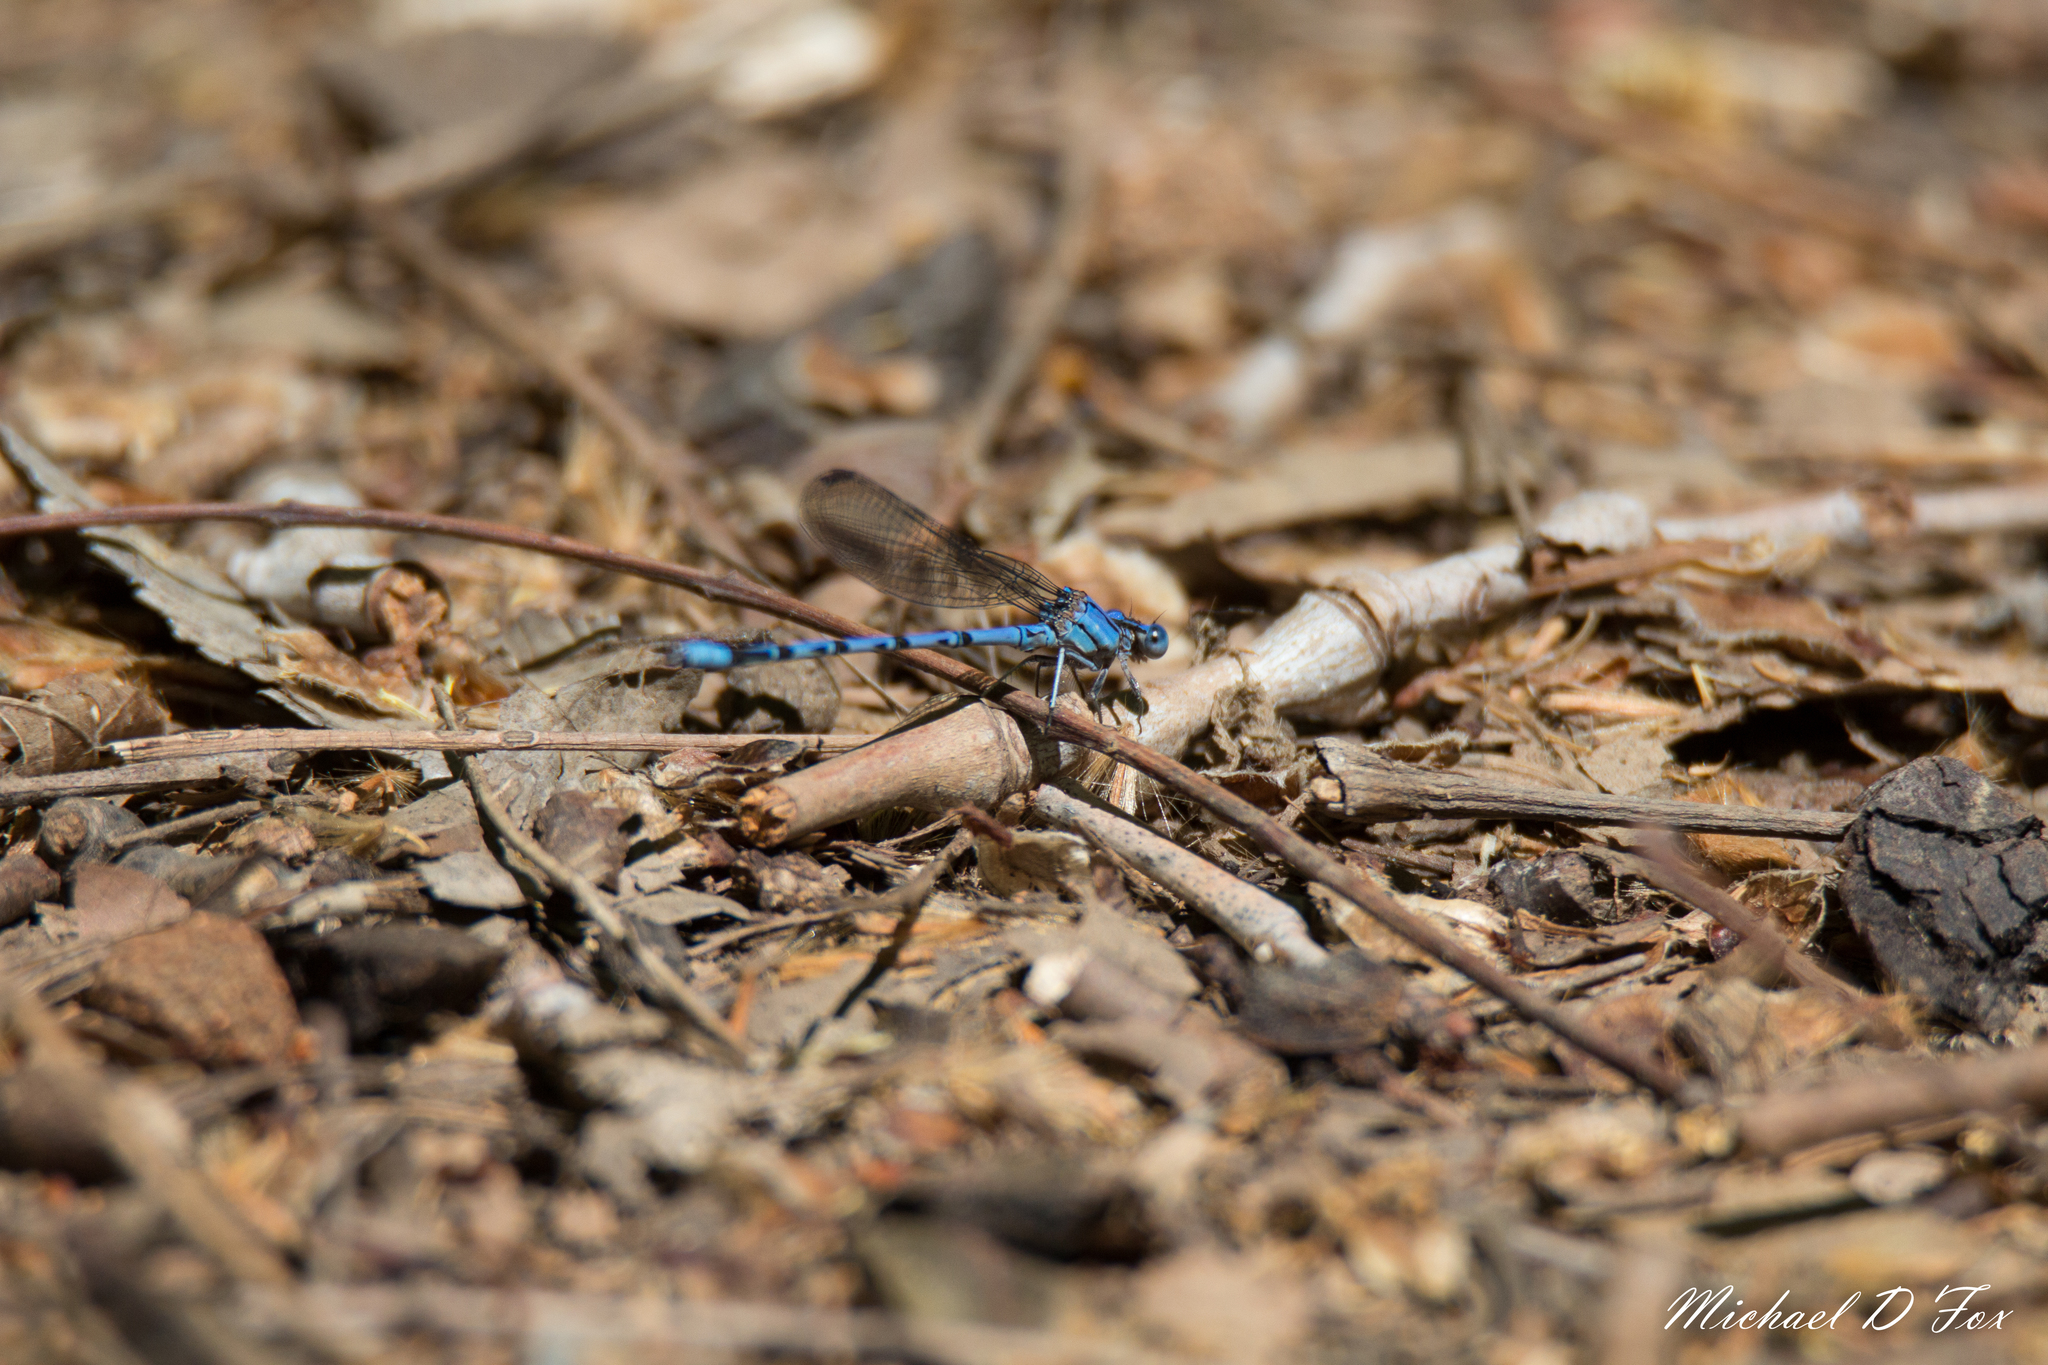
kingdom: Animalia
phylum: Arthropoda
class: Insecta
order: Odonata
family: Coenagrionidae
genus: Argia
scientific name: Argia funebris
